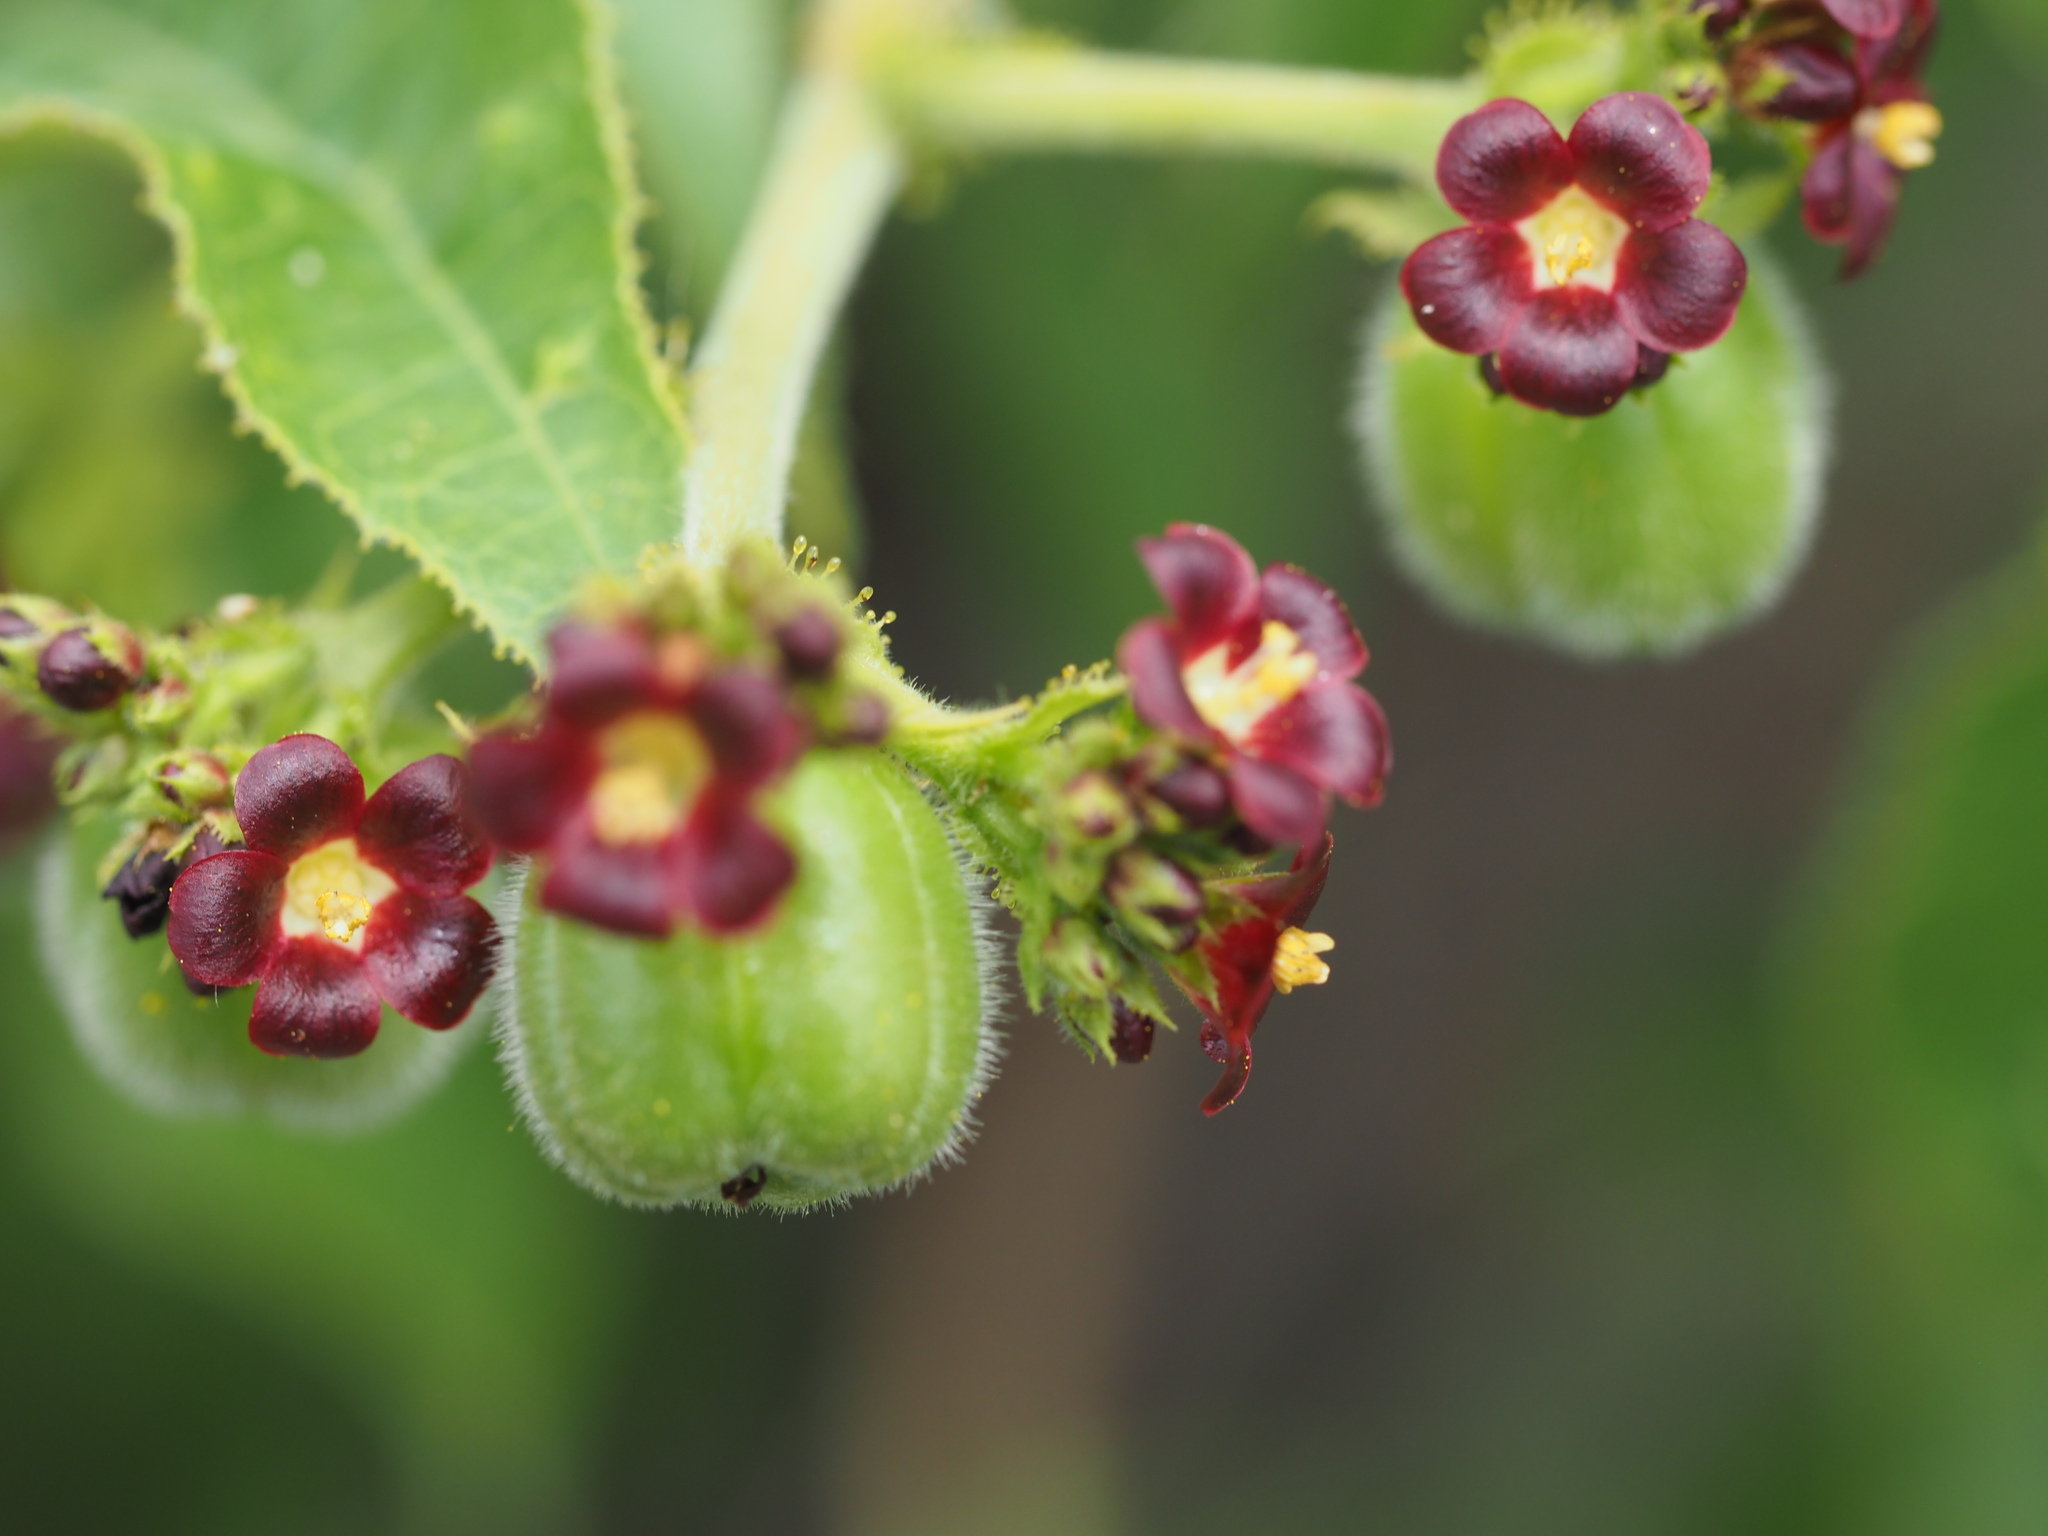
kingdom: Plantae
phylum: Tracheophyta
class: Magnoliopsida
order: Malpighiales
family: Euphorbiaceae
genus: Jatropha
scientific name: Jatropha gossypiifolia
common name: Bellyache bush
